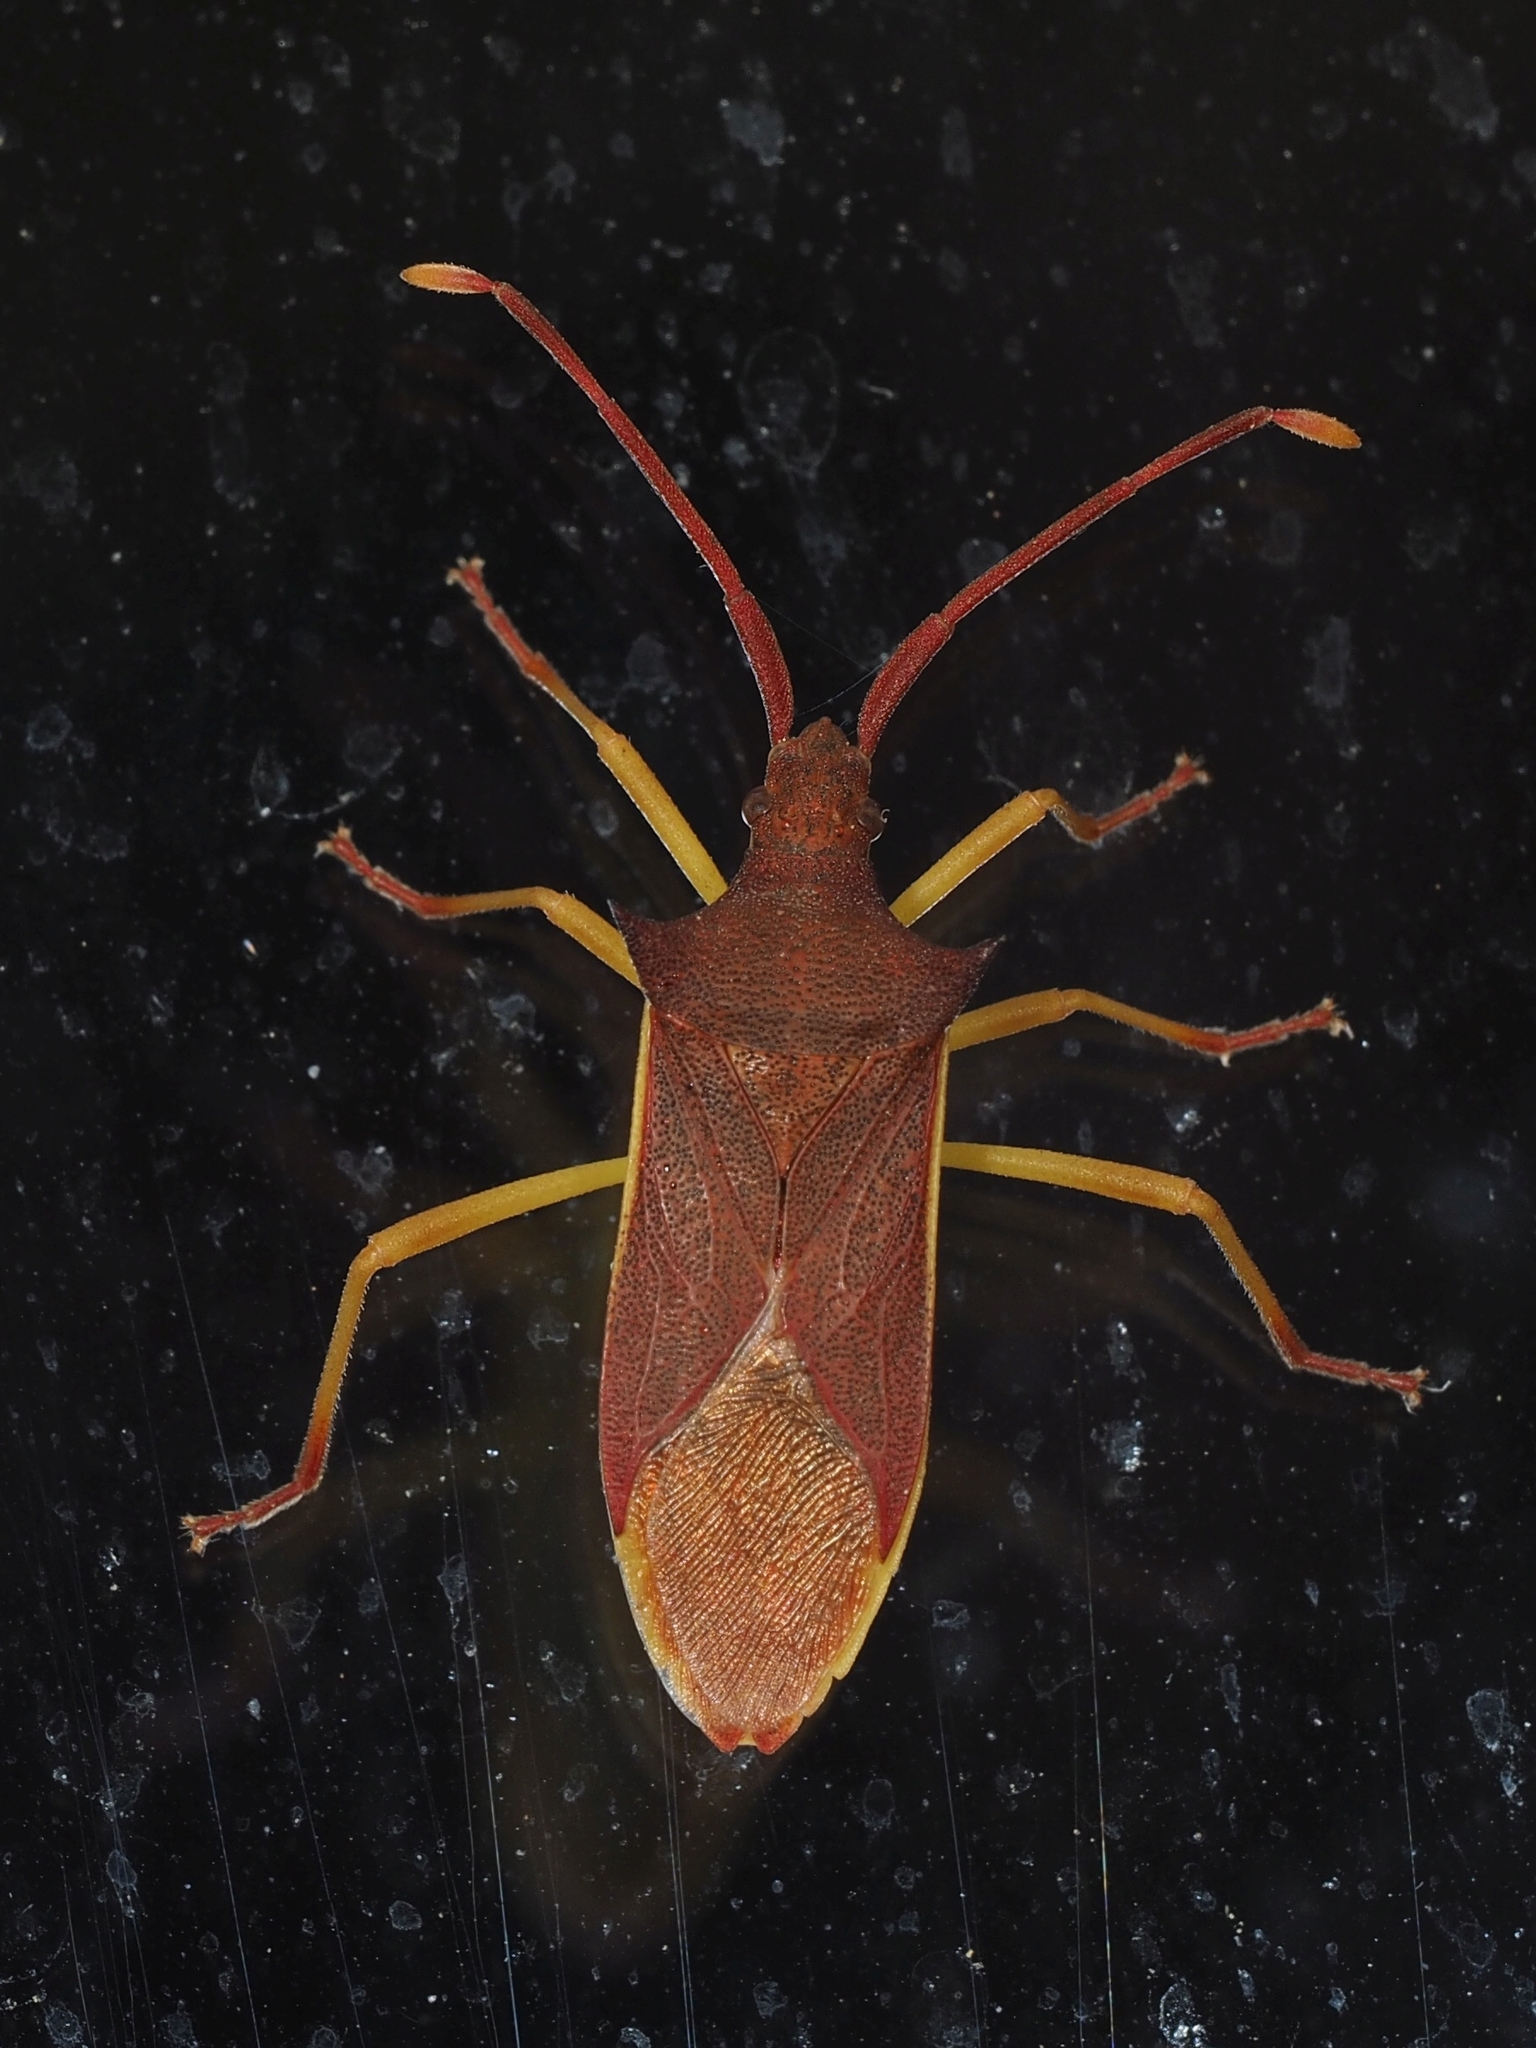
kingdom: Animalia
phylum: Arthropoda
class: Insecta
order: Hemiptera
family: Coreidae
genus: Gonocerus
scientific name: Gonocerus insidiator
